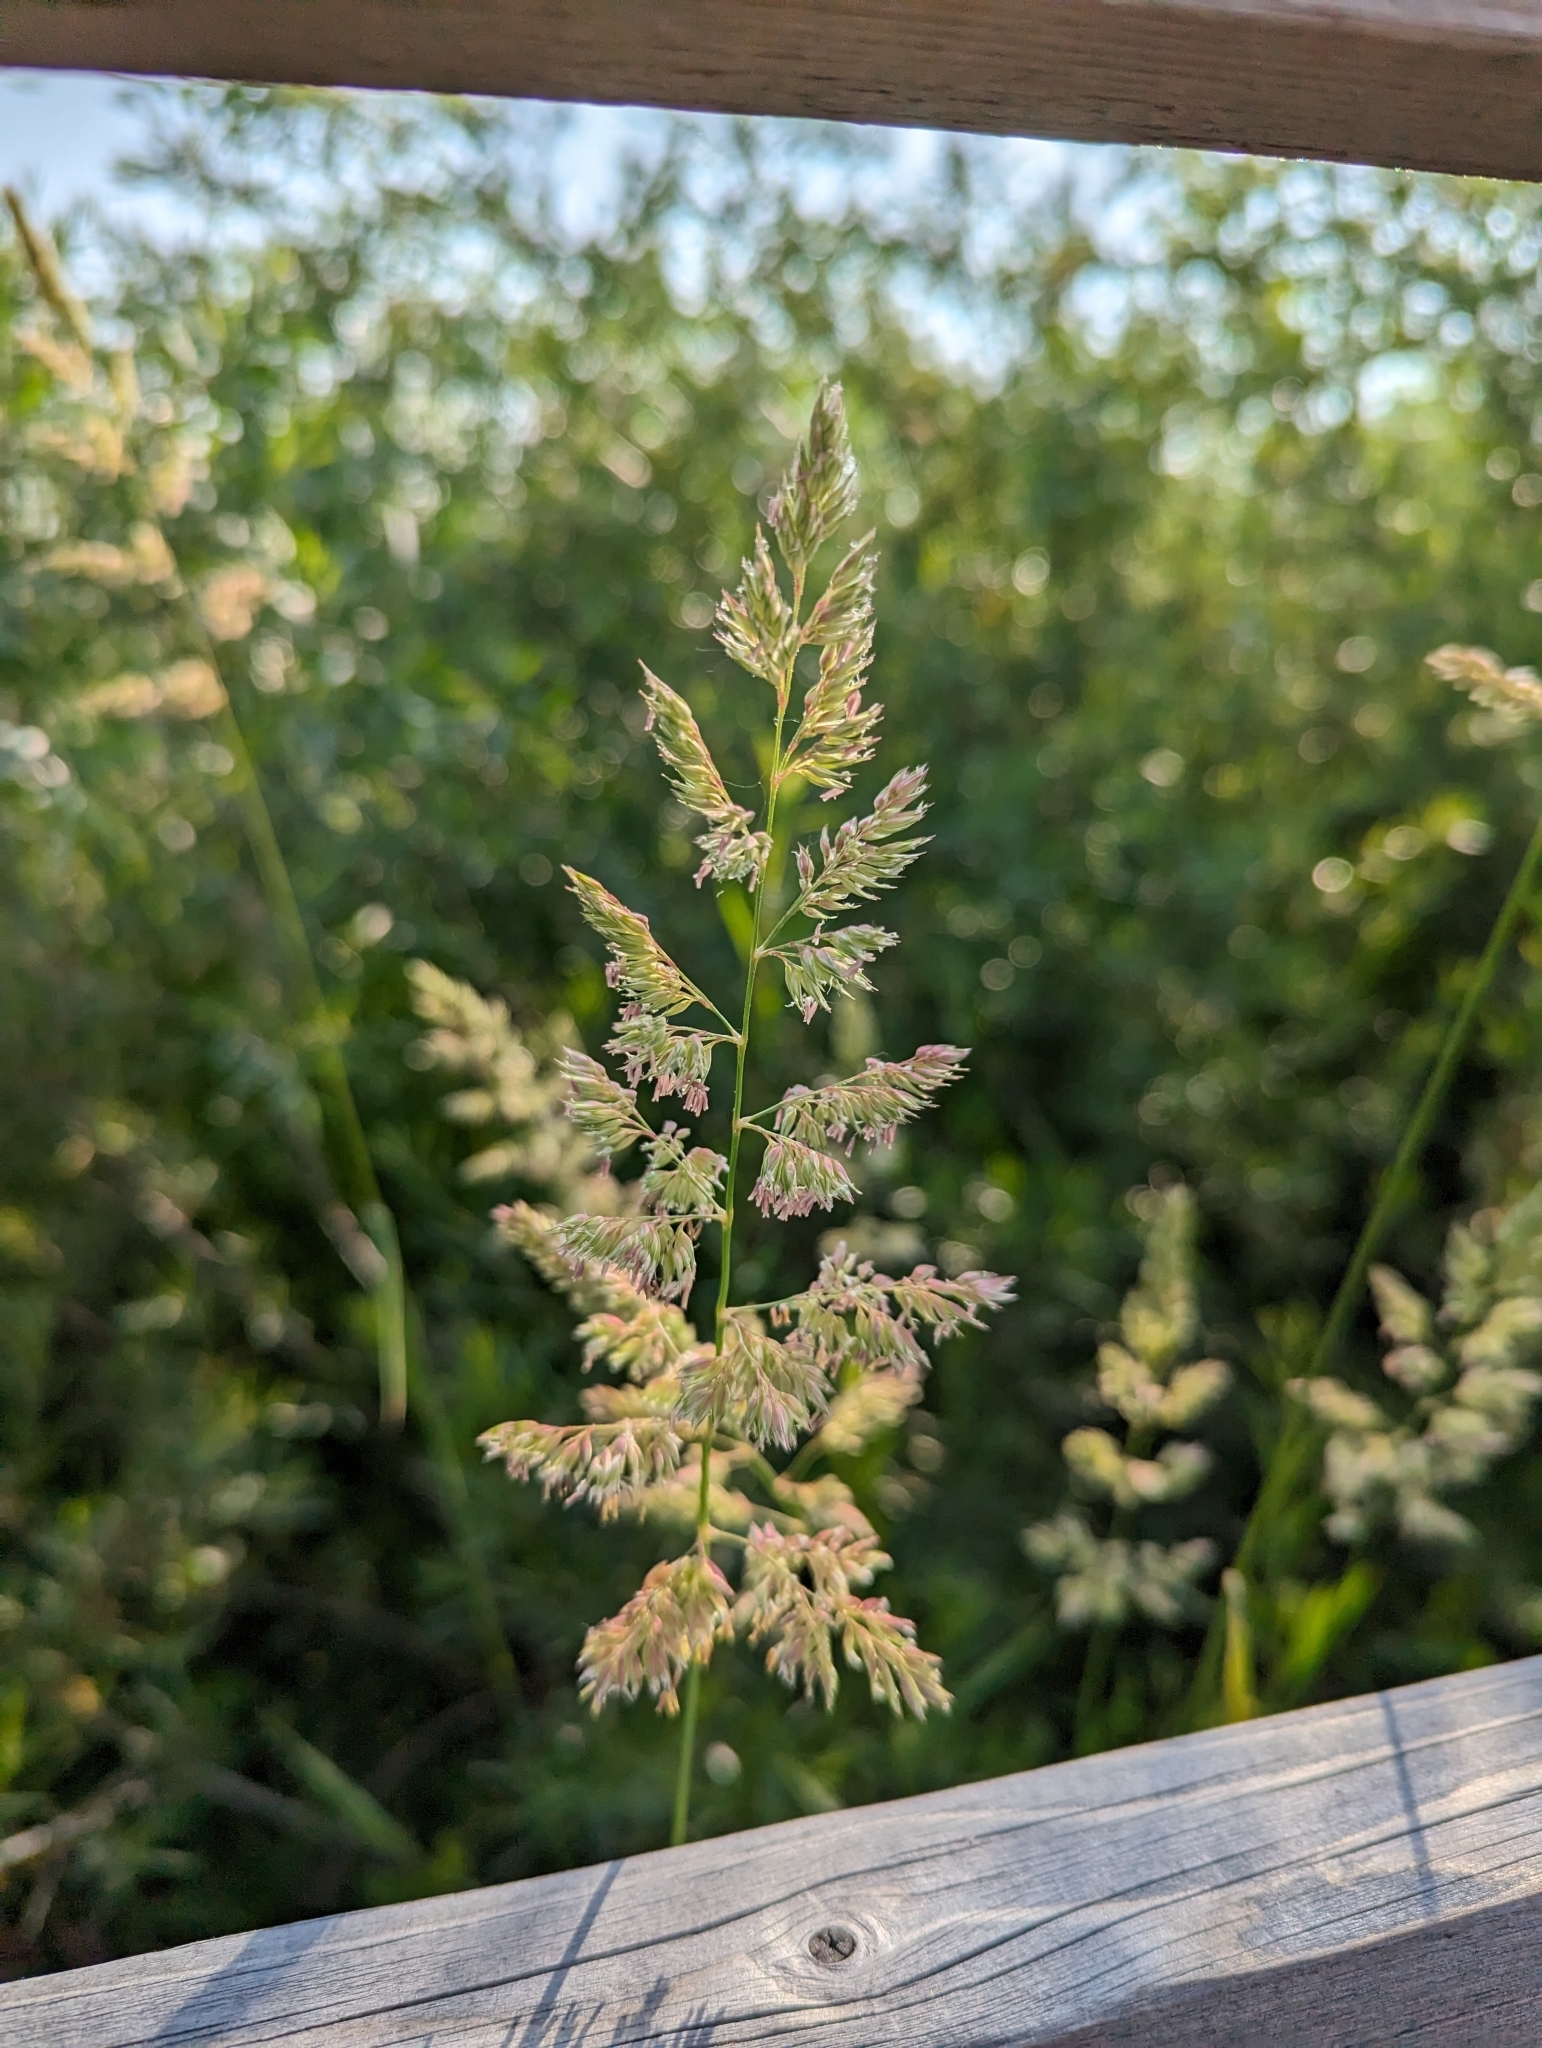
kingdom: Plantae
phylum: Tracheophyta
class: Liliopsida
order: Poales
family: Poaceae
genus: Phalaris
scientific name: Phalaris arundinacea
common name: Reed canary-grass
